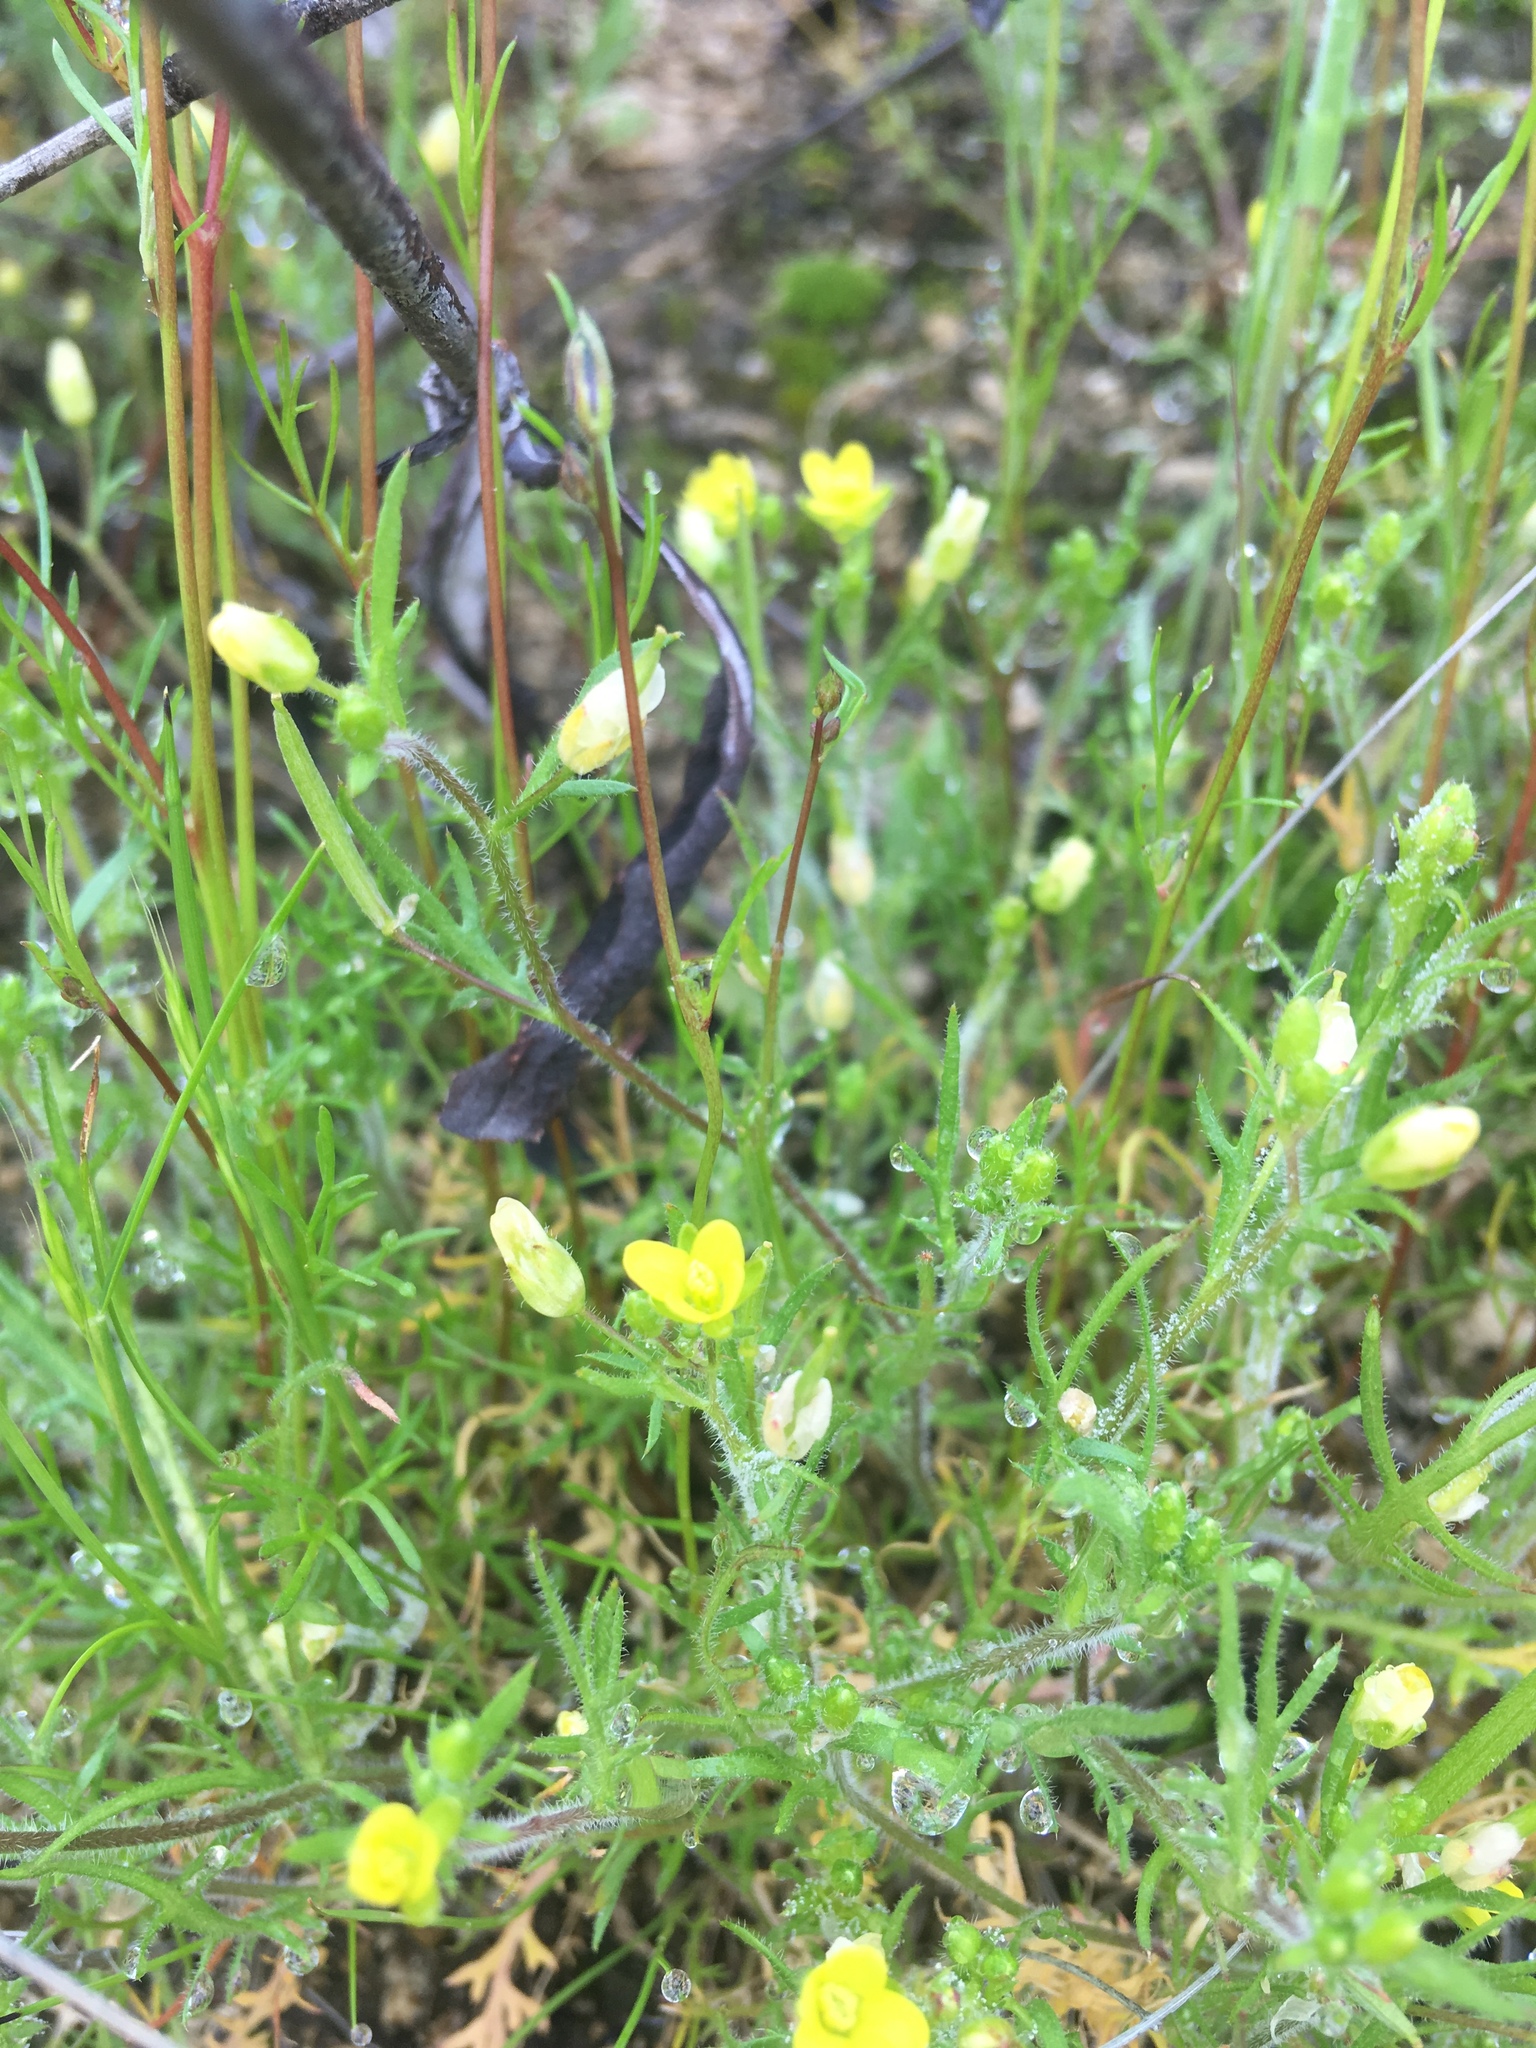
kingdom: Plantae
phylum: Tracheophyta
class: Magnoliopsida
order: Brassicales
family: Brassicaceae
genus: Tropidocarpum
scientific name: Tropidocarpum gracile
